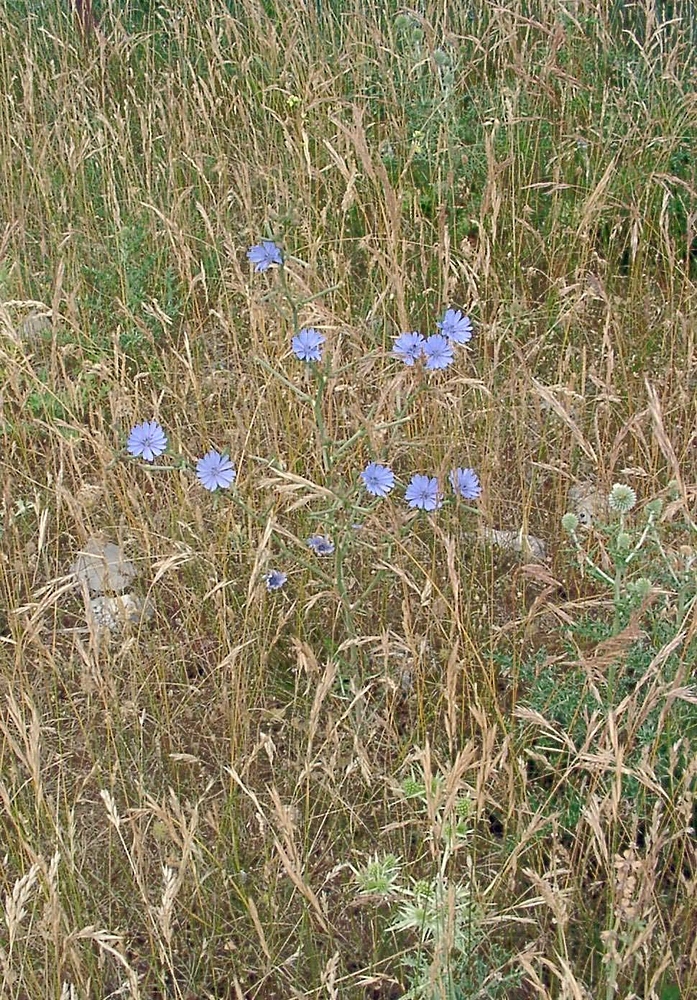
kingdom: Plantae
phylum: Tracheophyta
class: Magnoliopsida
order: Asterales
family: Asteraceae
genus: Cichorium
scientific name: Cichorium intybus
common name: Chicory
